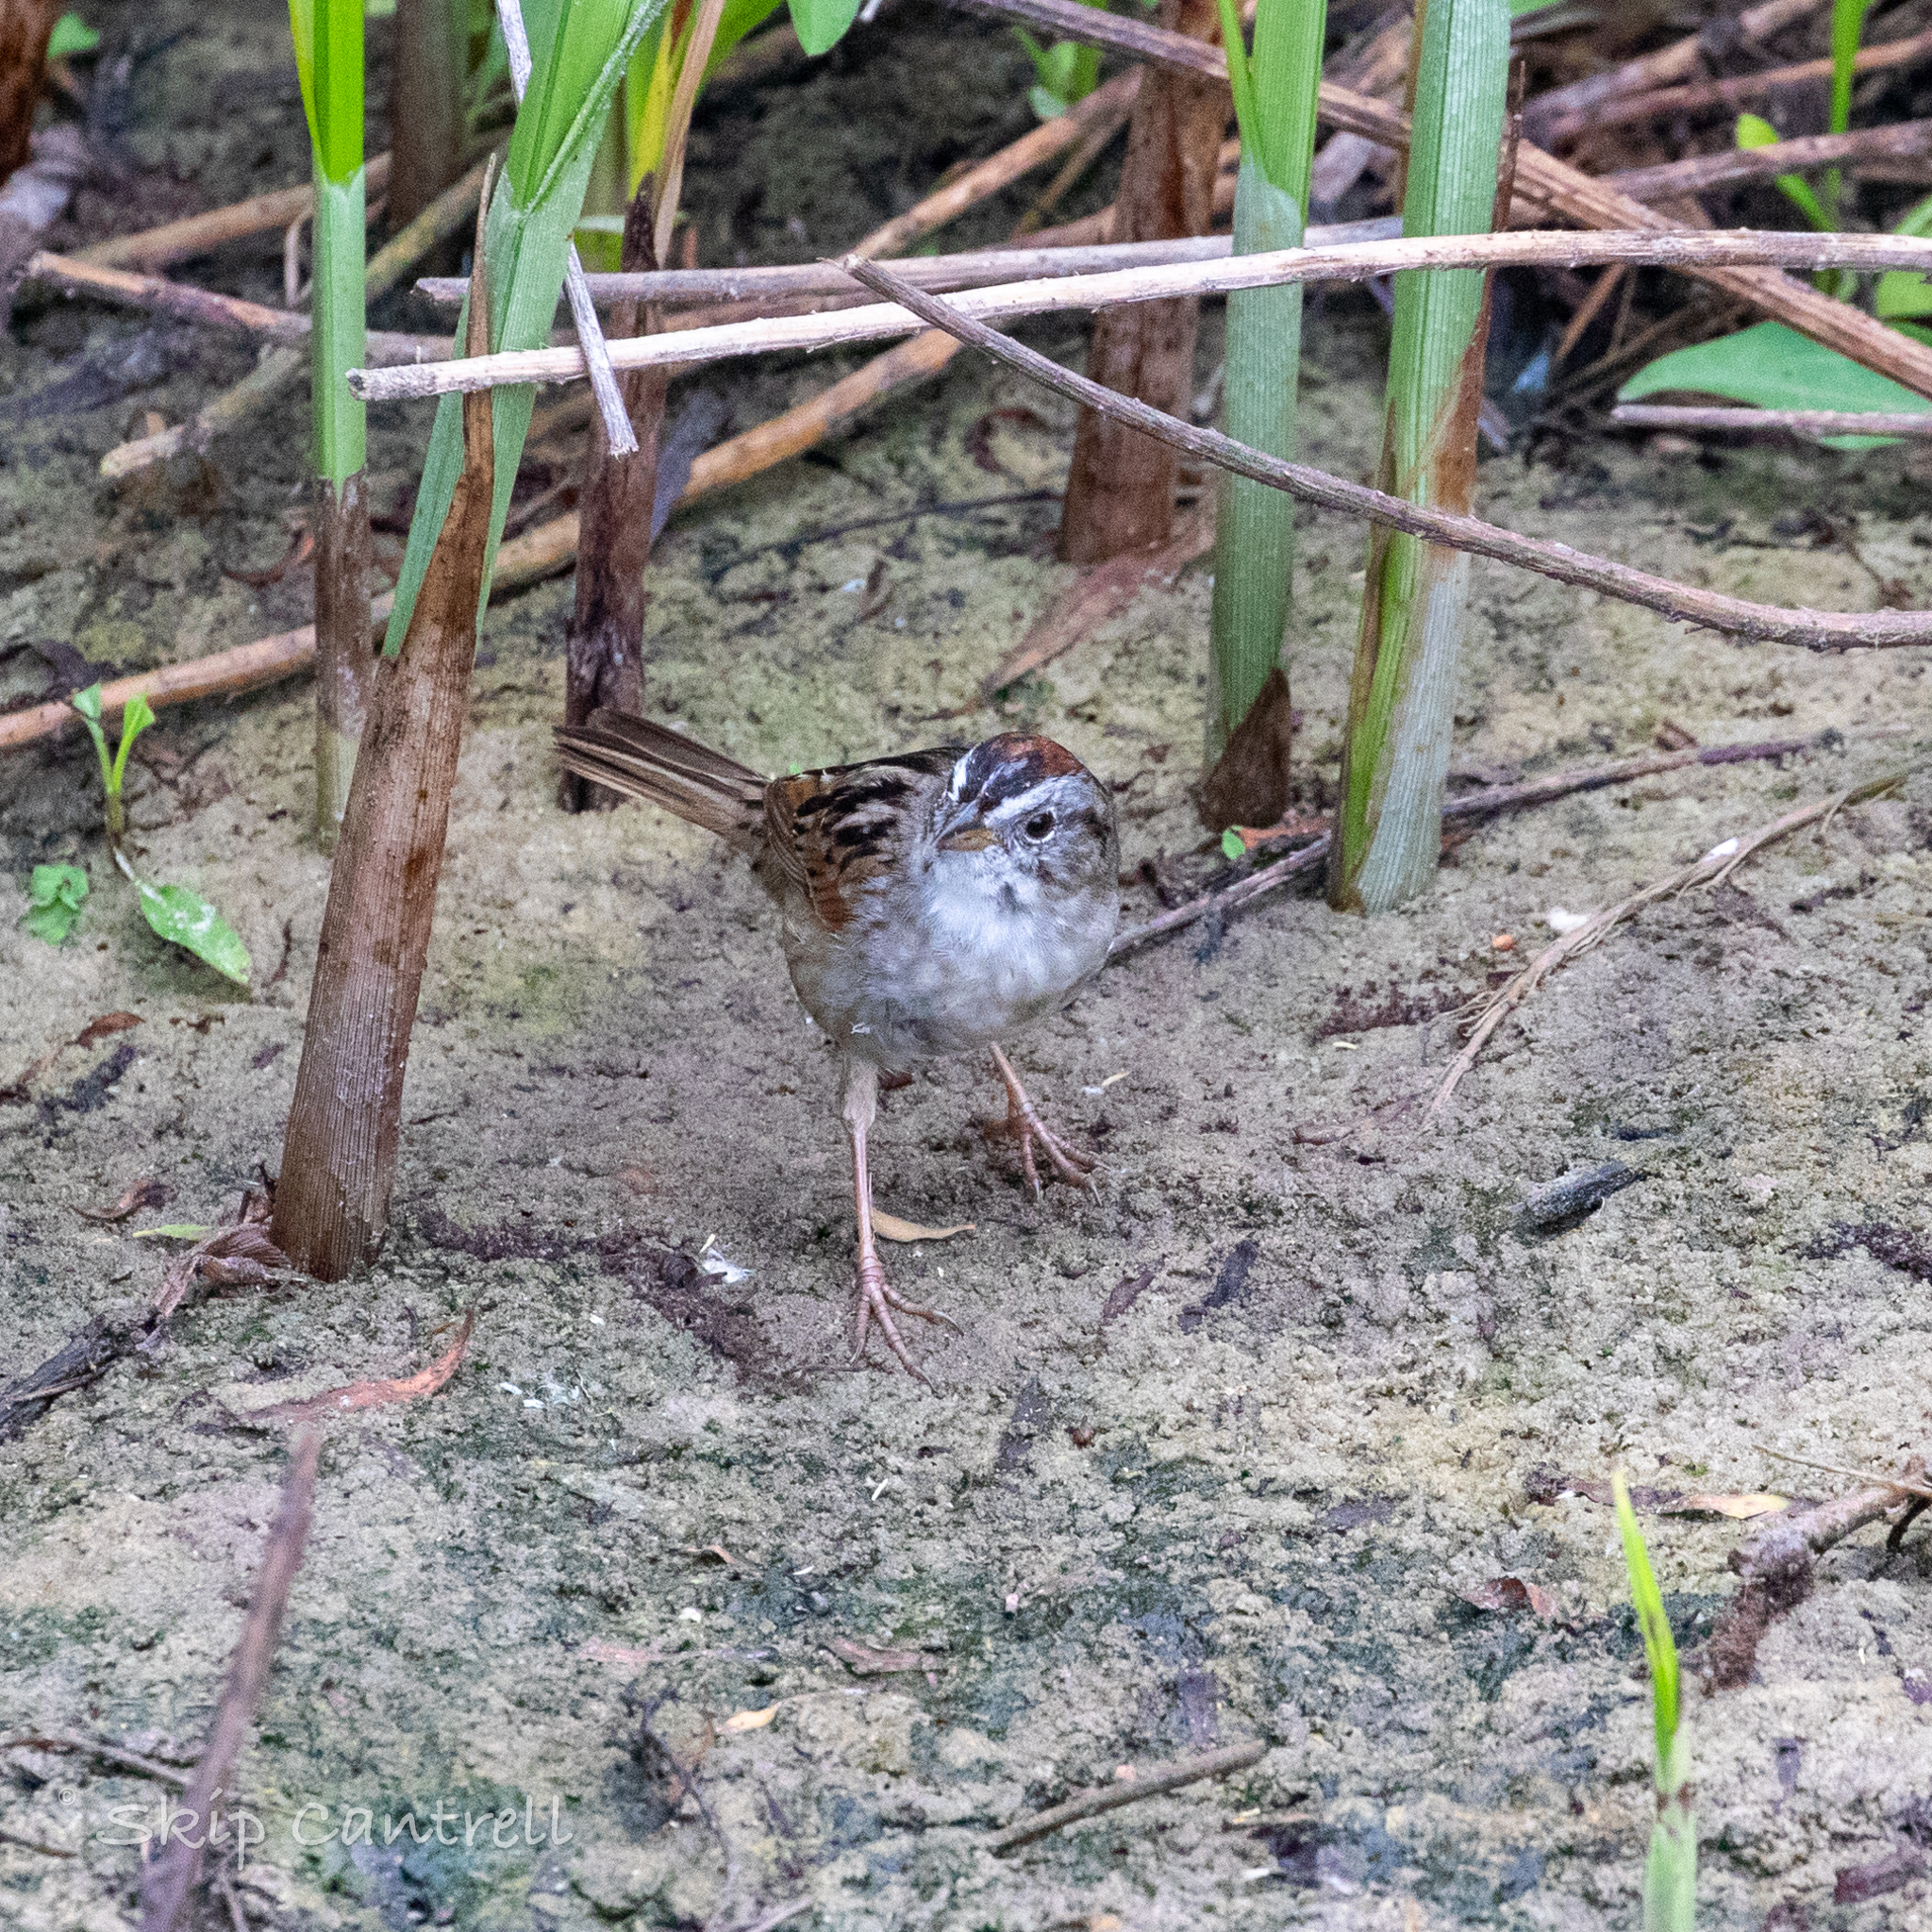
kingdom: Animalia
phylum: Chordata
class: Aves
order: Passeriformes
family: Passerellidae
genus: Melospiza
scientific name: Melospiza georgiana
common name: Swamp sparrow
